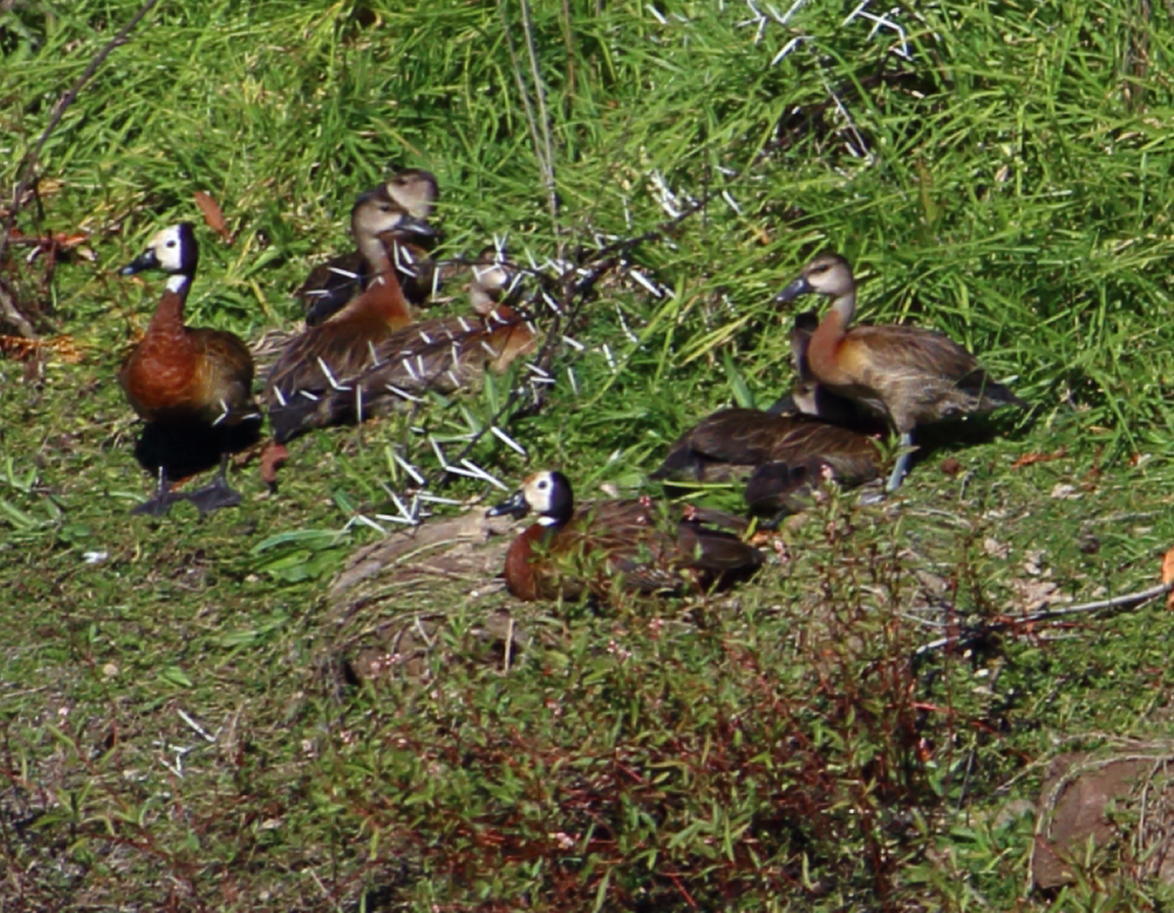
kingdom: Animalia
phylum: Chordata
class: Aves
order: Anseriformes
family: Anatidae
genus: Dendrocygna
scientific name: Dendrocygna viduata
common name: White-faced whistling duck
